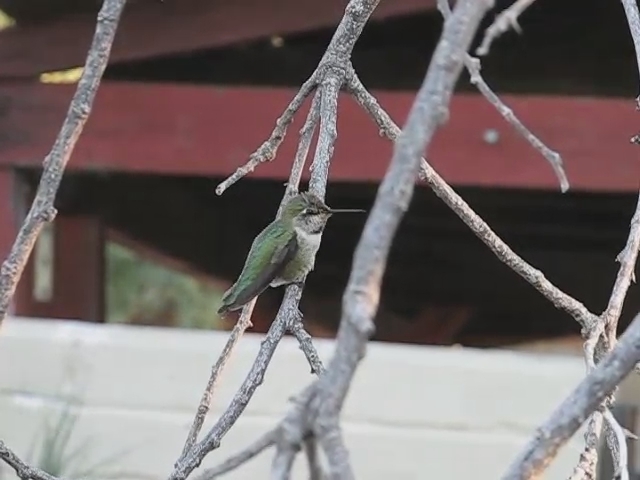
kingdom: Animalia
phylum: Chordata
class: Aves
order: Apodiformes
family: Trochilidae
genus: Calypte
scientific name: Calypte anna
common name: Anna's hummingbird
